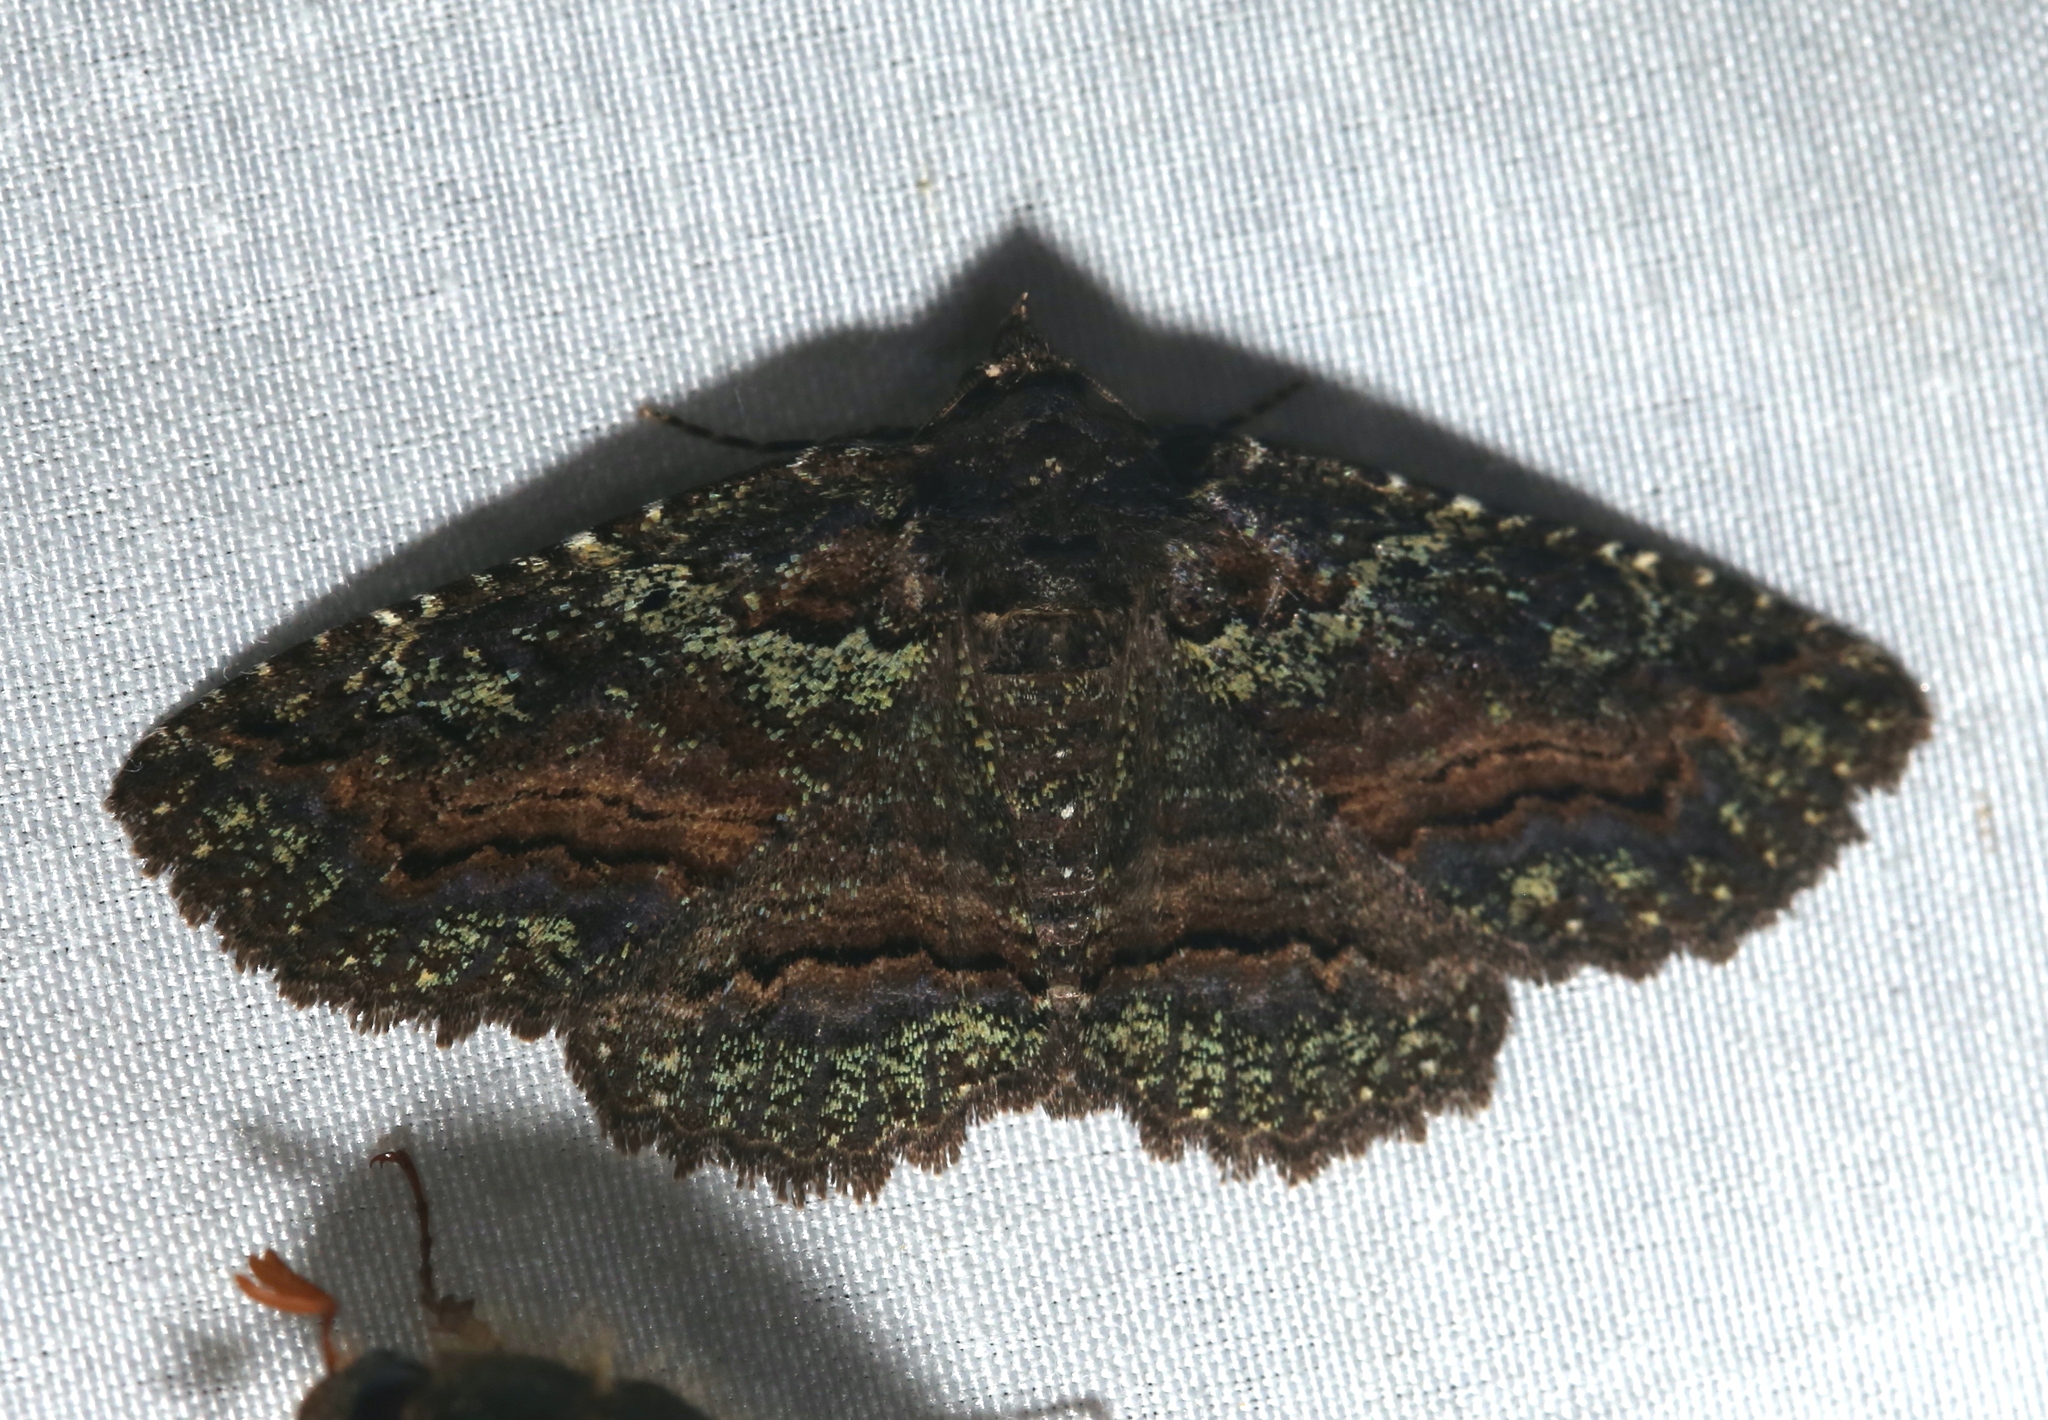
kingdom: Animalia
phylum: Arthropoda
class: Insecta
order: Lepidoptera
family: Erebidae
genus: Zale
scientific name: Zale aeruginosa
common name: Green-dusted zale moth
